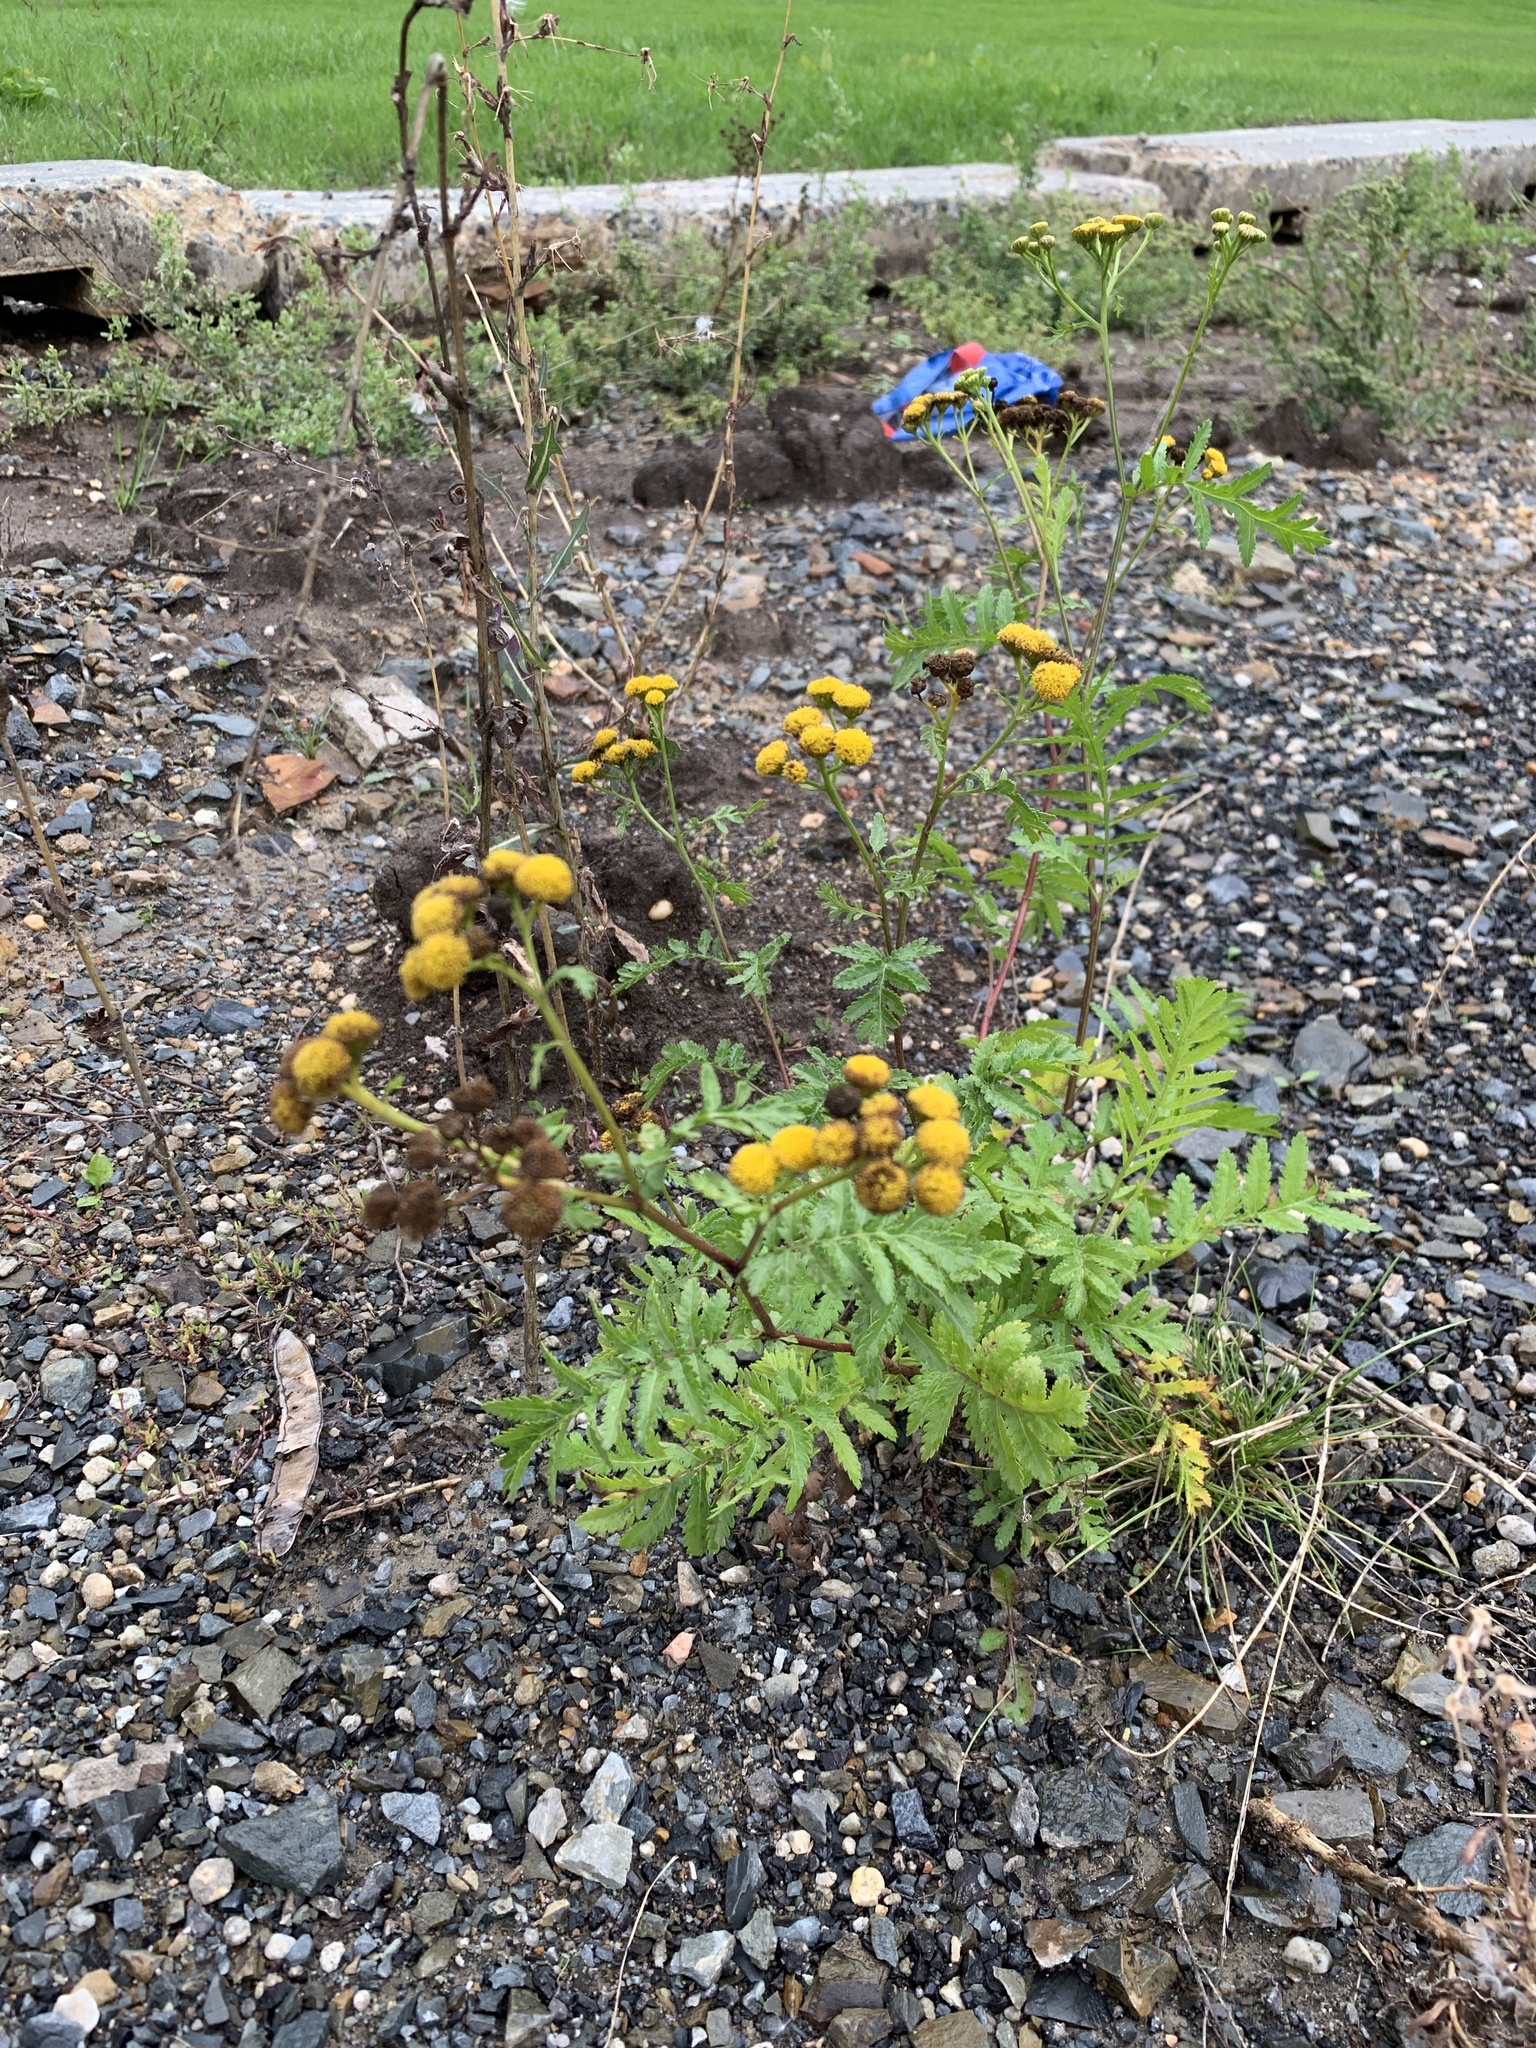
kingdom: Plantae
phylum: Tracheophyta
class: Magnoliopsida
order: Asterales
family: Asteraceae
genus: Tanacetum
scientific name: Tanacetum vulgare
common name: Common tansy
